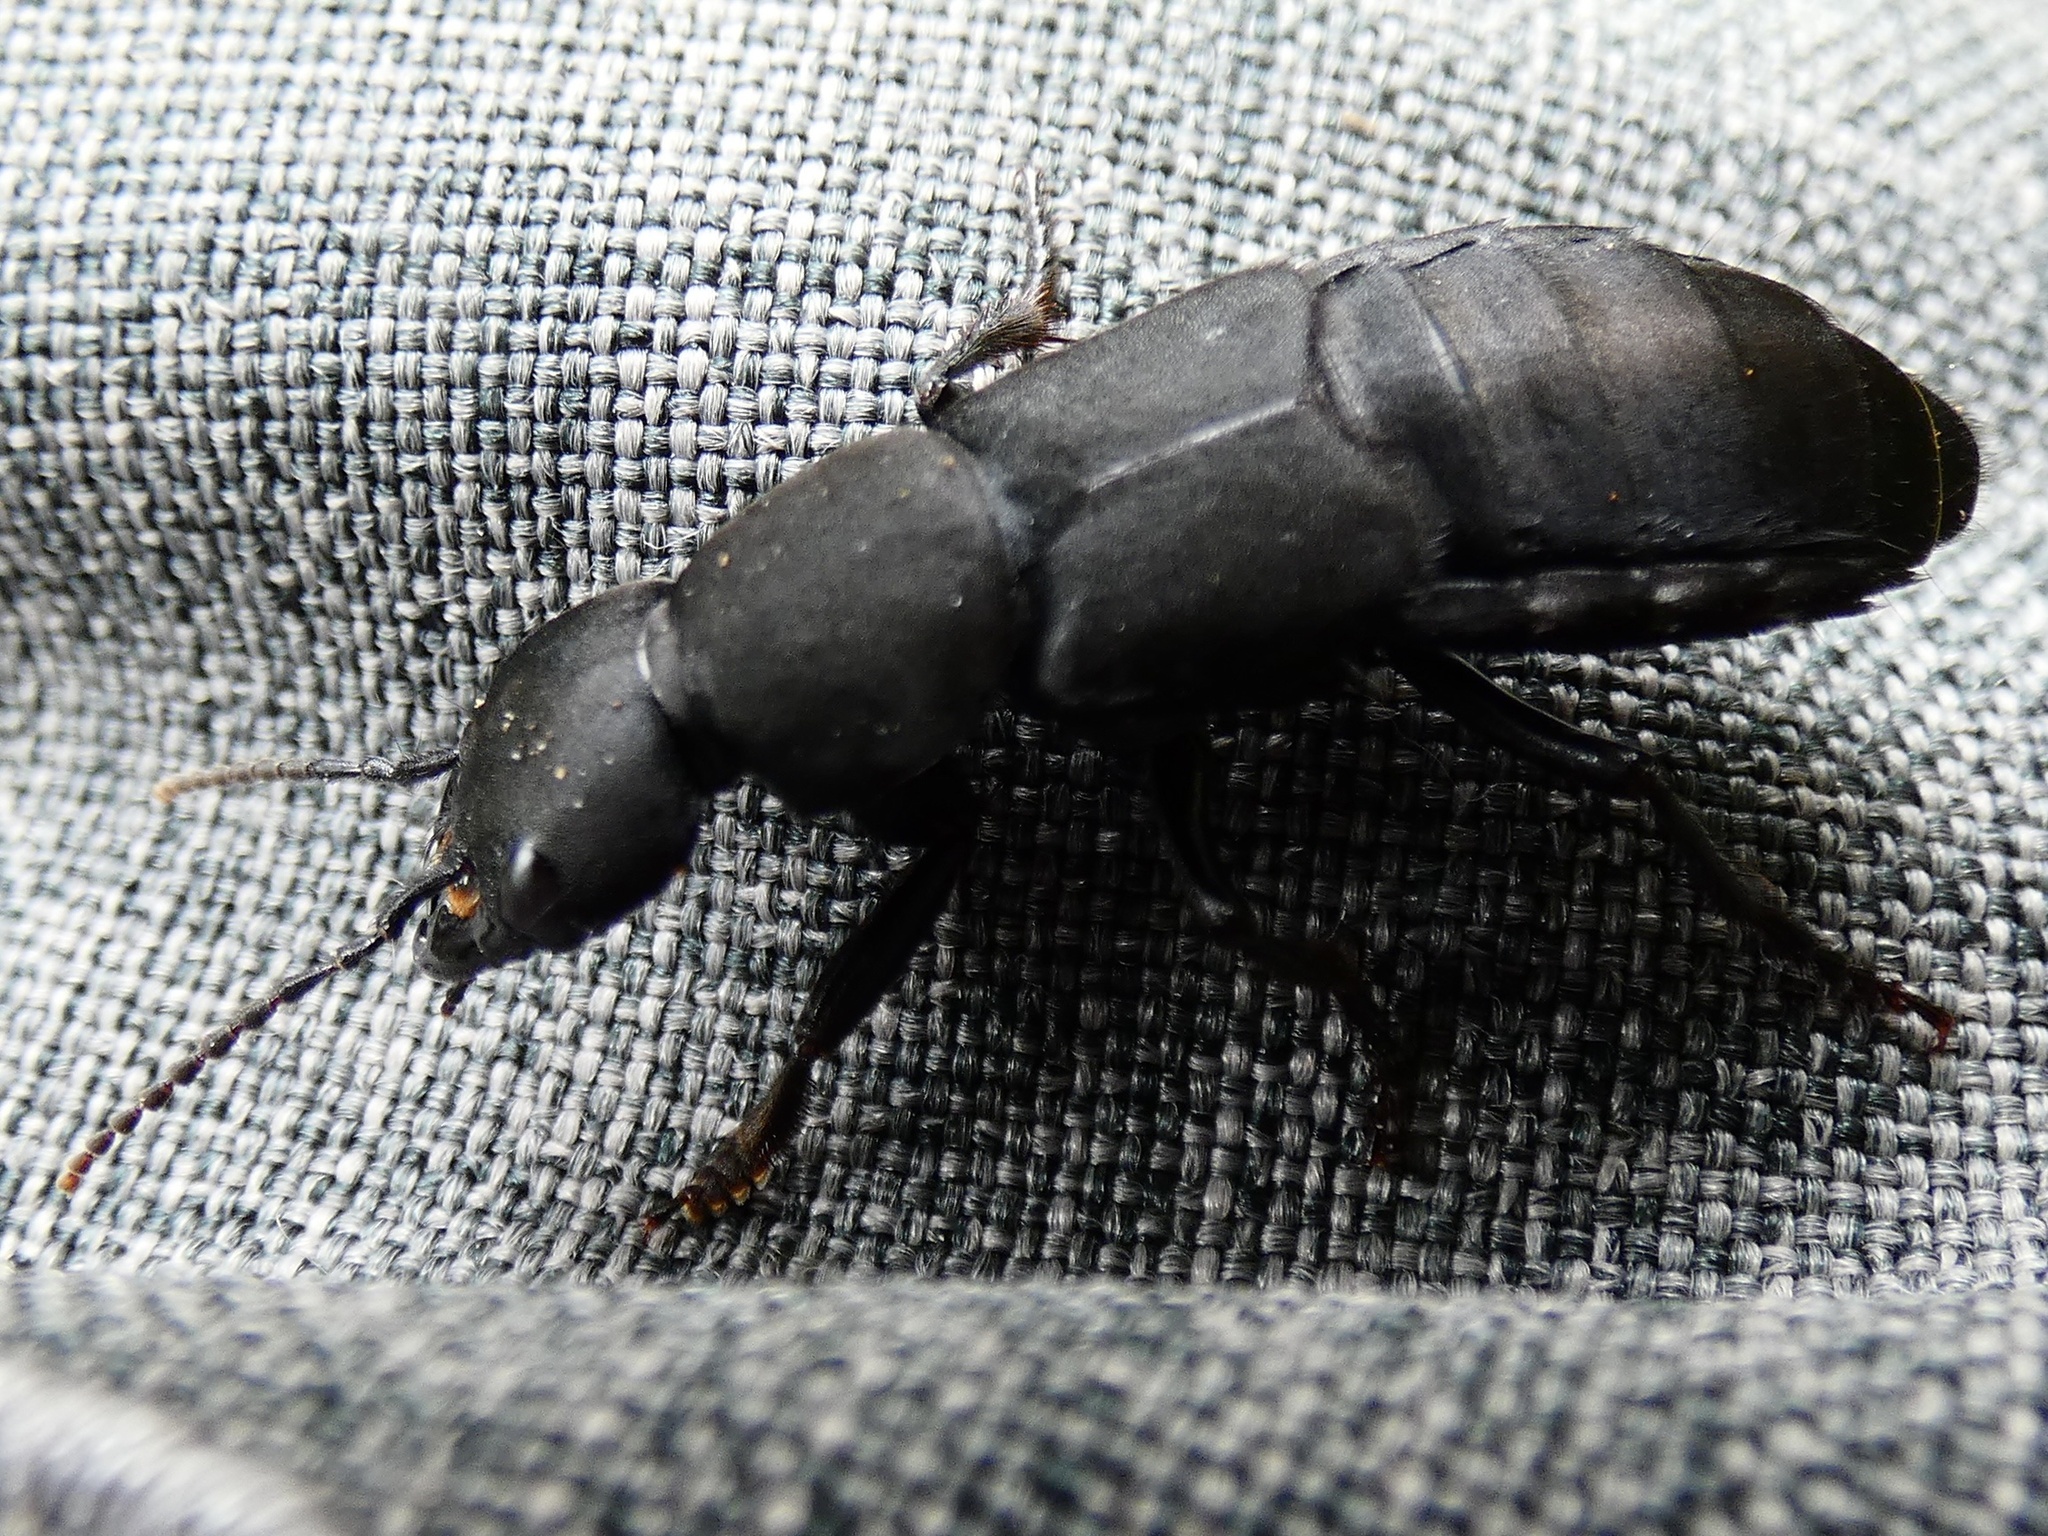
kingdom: Animalia
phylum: Arthropoda
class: Insecta
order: Coleoptera
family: Staphylinidae
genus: Ocypus
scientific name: Ocypus olens
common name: Devil's coach-horse
